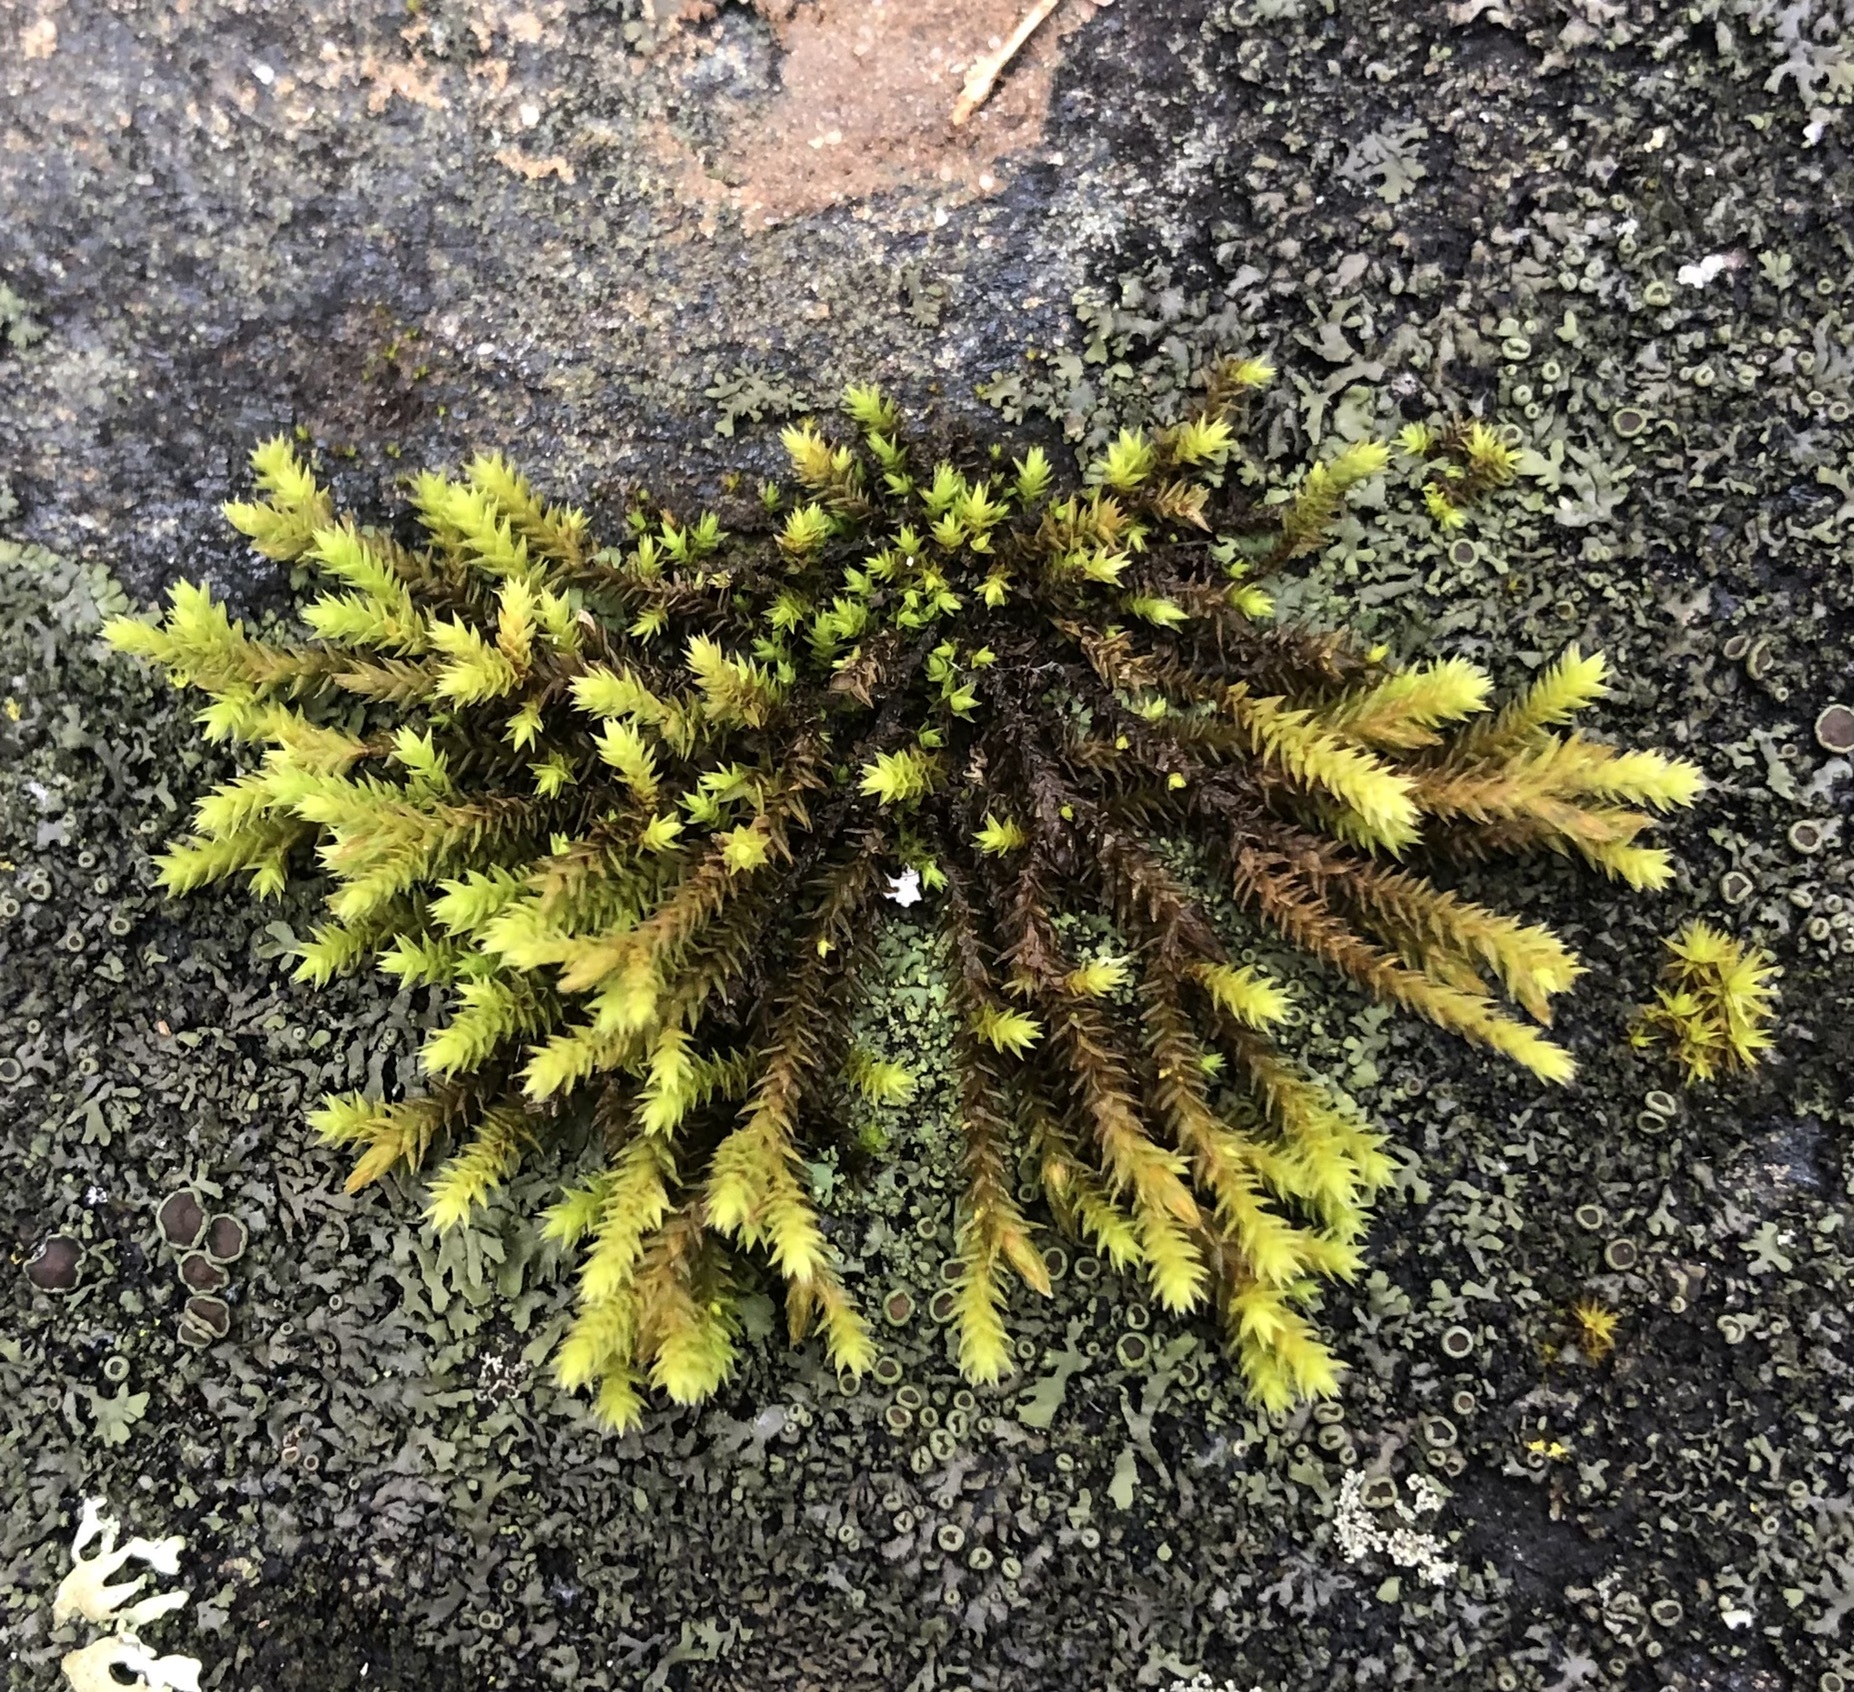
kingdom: Plantae
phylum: Bryophyta
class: Bryopsida
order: Hedwigiales
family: Hedwigiaceae
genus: Hedwigia
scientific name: Hedwigia ciliata
